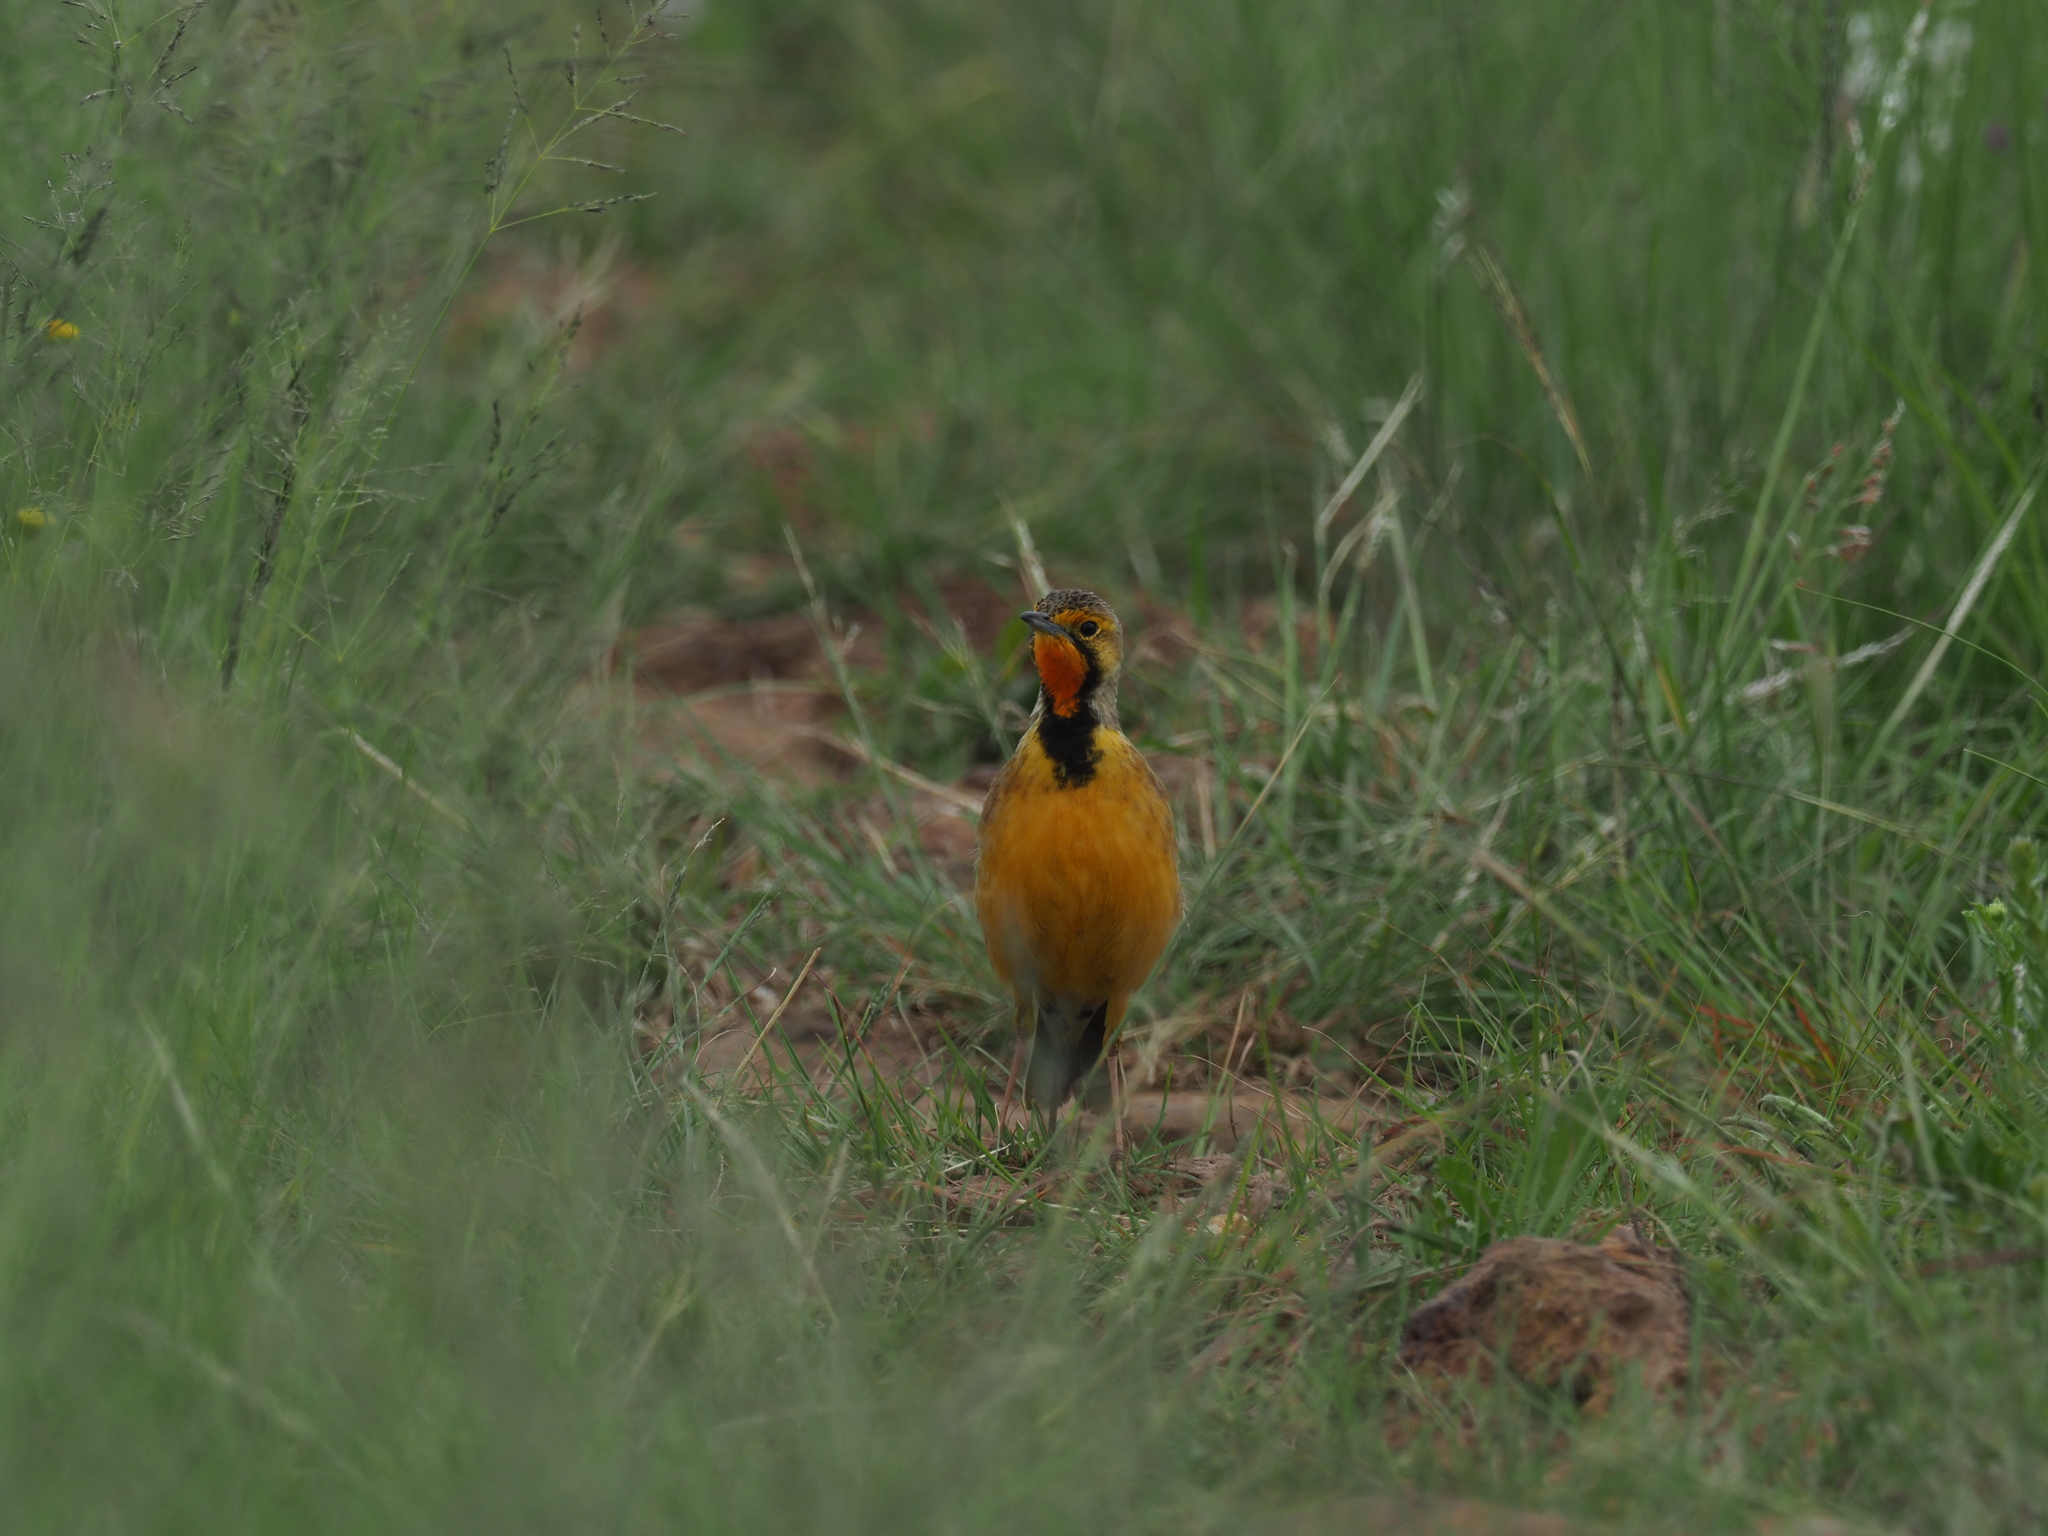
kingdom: Animalia
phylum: Chordata
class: Aves
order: Passeriformes
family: Motacillidae
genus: Macronyx
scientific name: Macronyx capensis
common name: Cape longclaw
